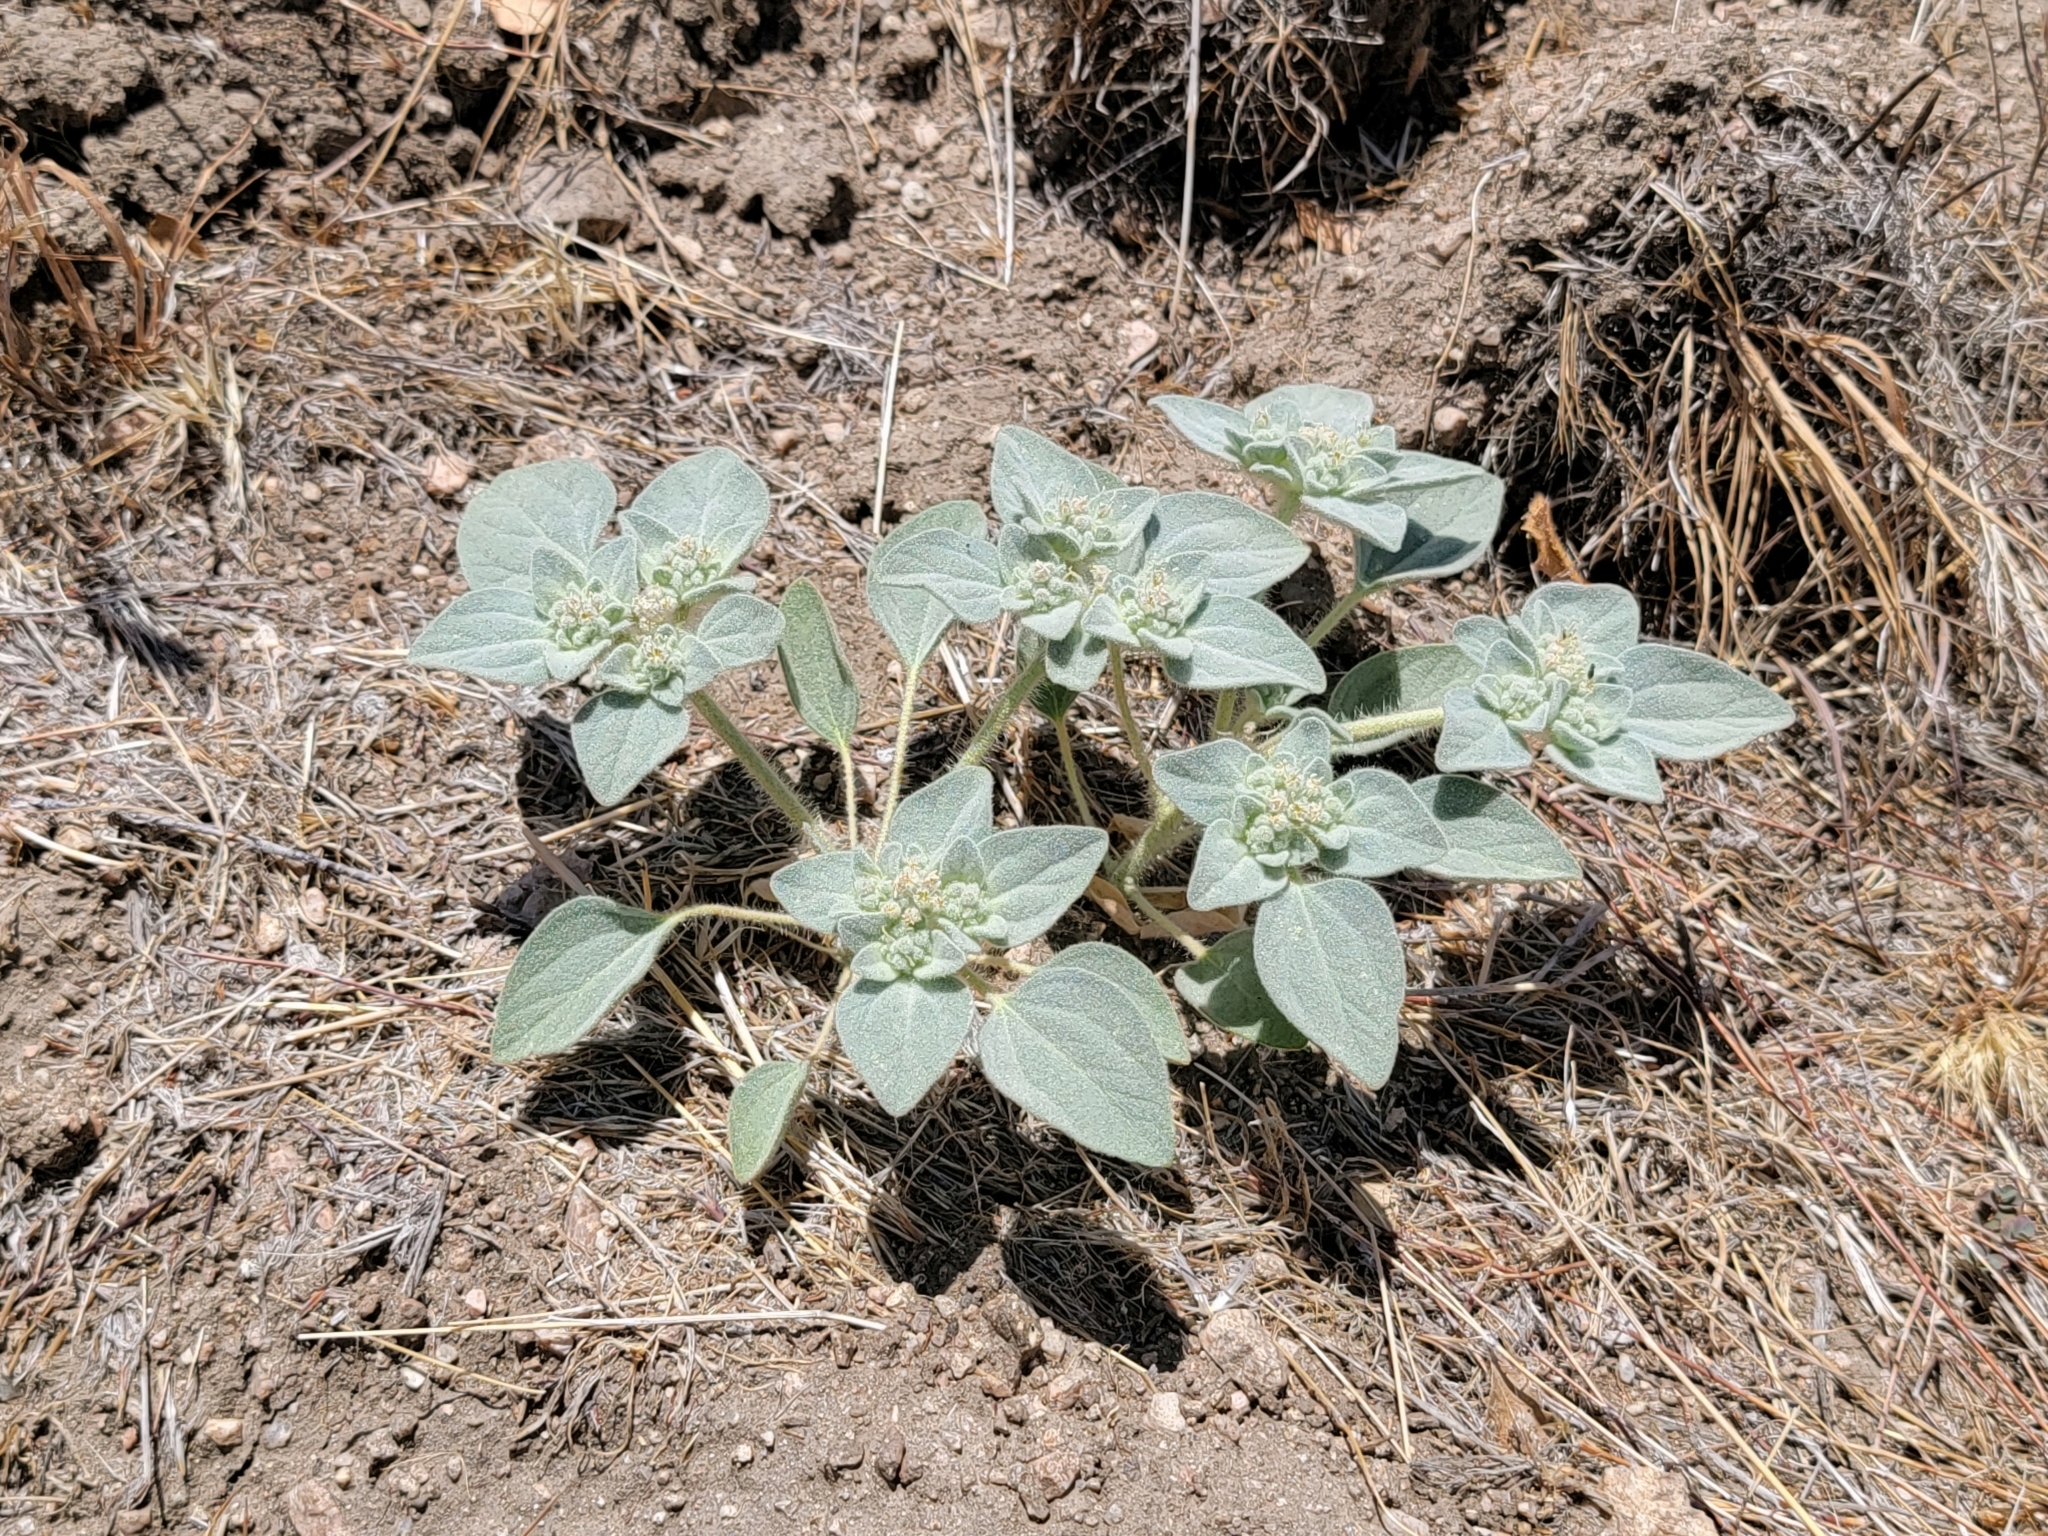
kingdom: Plantae
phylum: Tracheophyta
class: Magnoliopsida
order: Malpighiales
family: Euphorbiaceae
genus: Croton
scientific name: Croton setiger
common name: Dove weed
